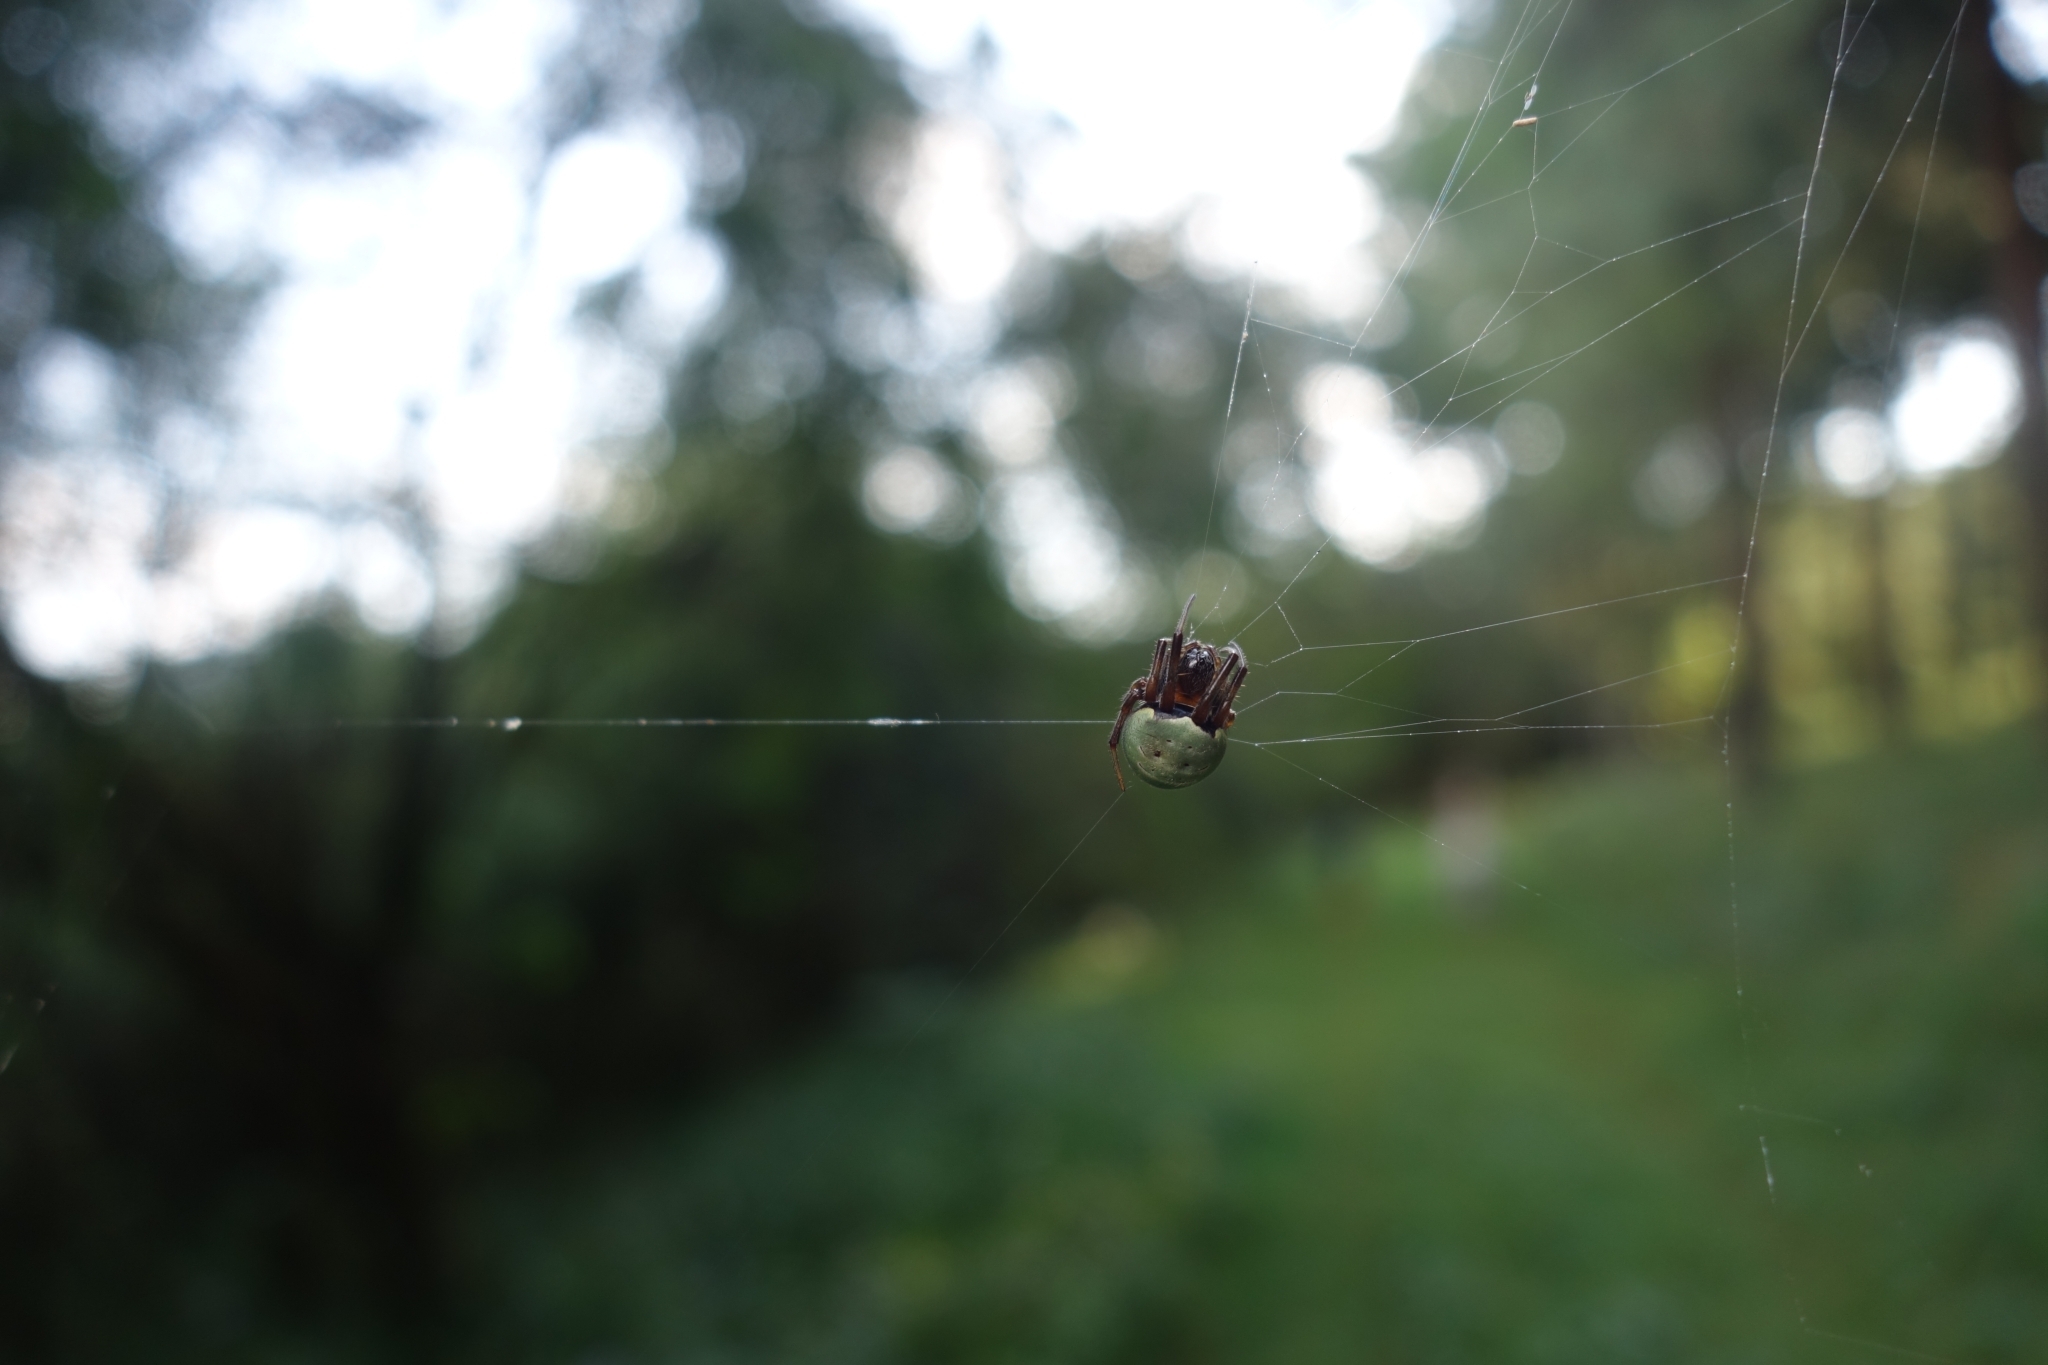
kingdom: Animalia
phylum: Arthropoda
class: Arachnida
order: Araneae
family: Araneidae
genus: Araneus
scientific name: Araneus apricus
